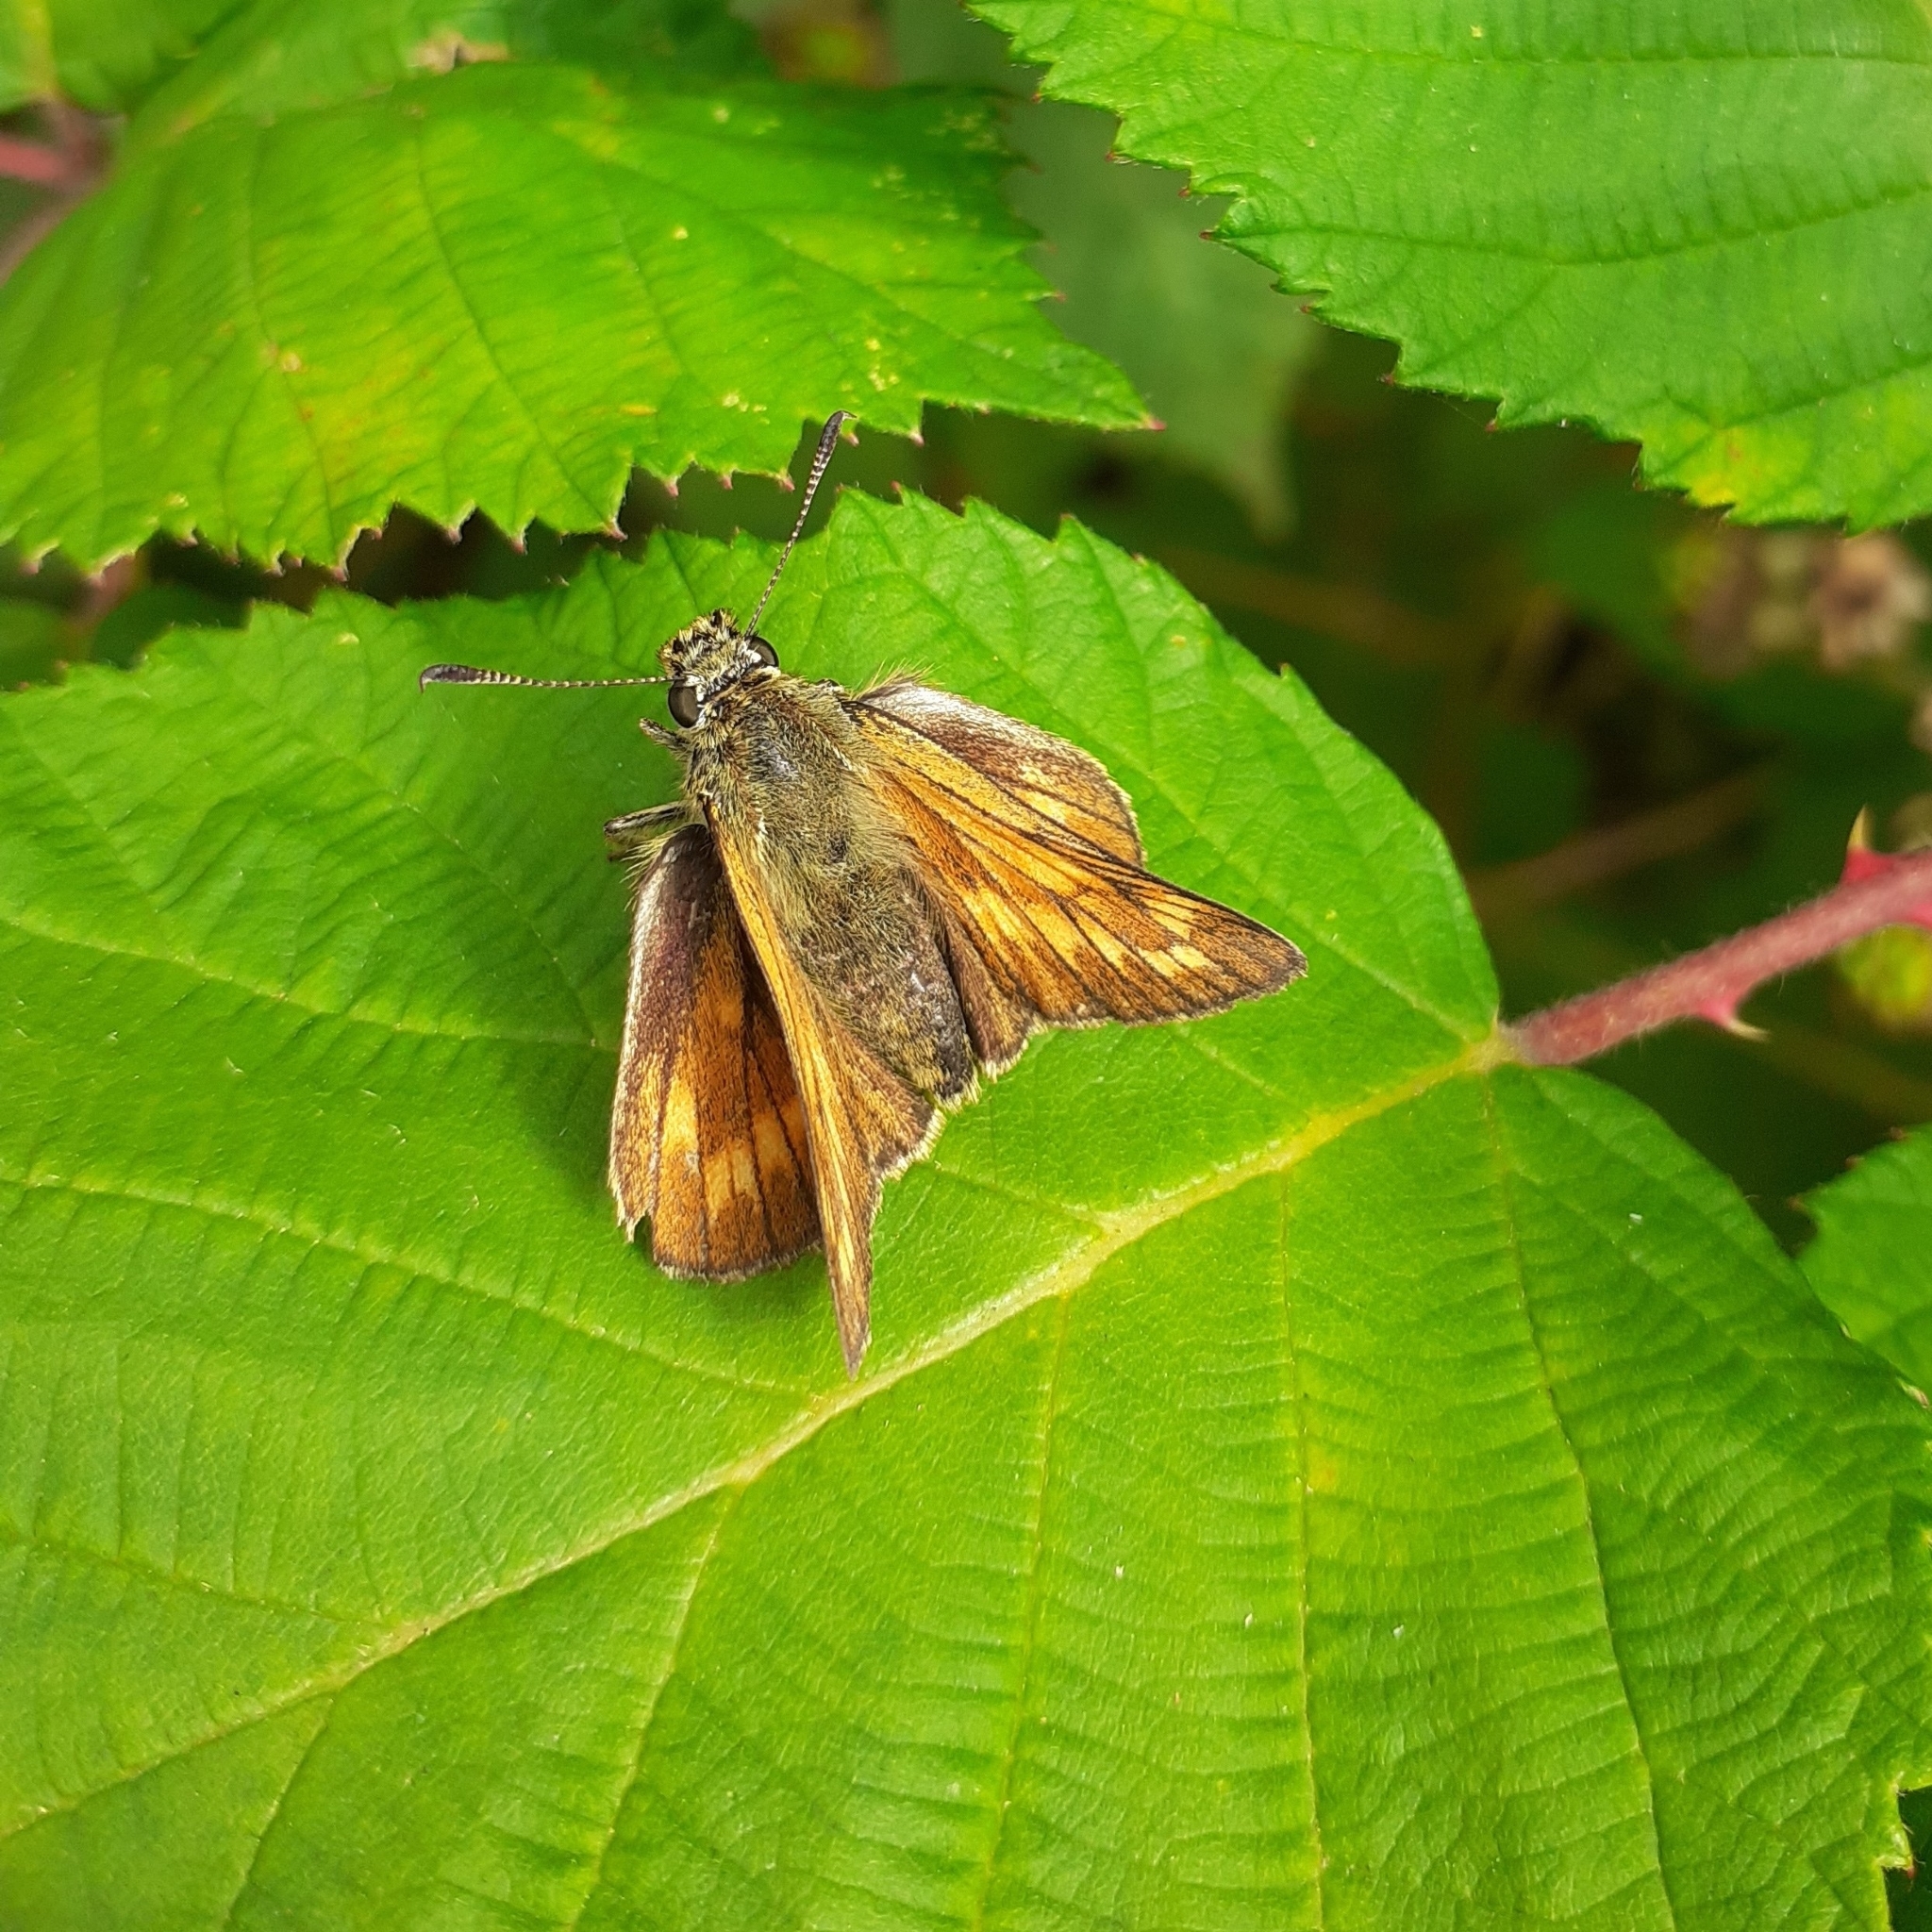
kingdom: Animalia
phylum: Arthropoda
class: Insecta
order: Lepidoptera
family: Hesperiidae
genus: Ochlodes
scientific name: Ochlodes venata
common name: Large skipper
